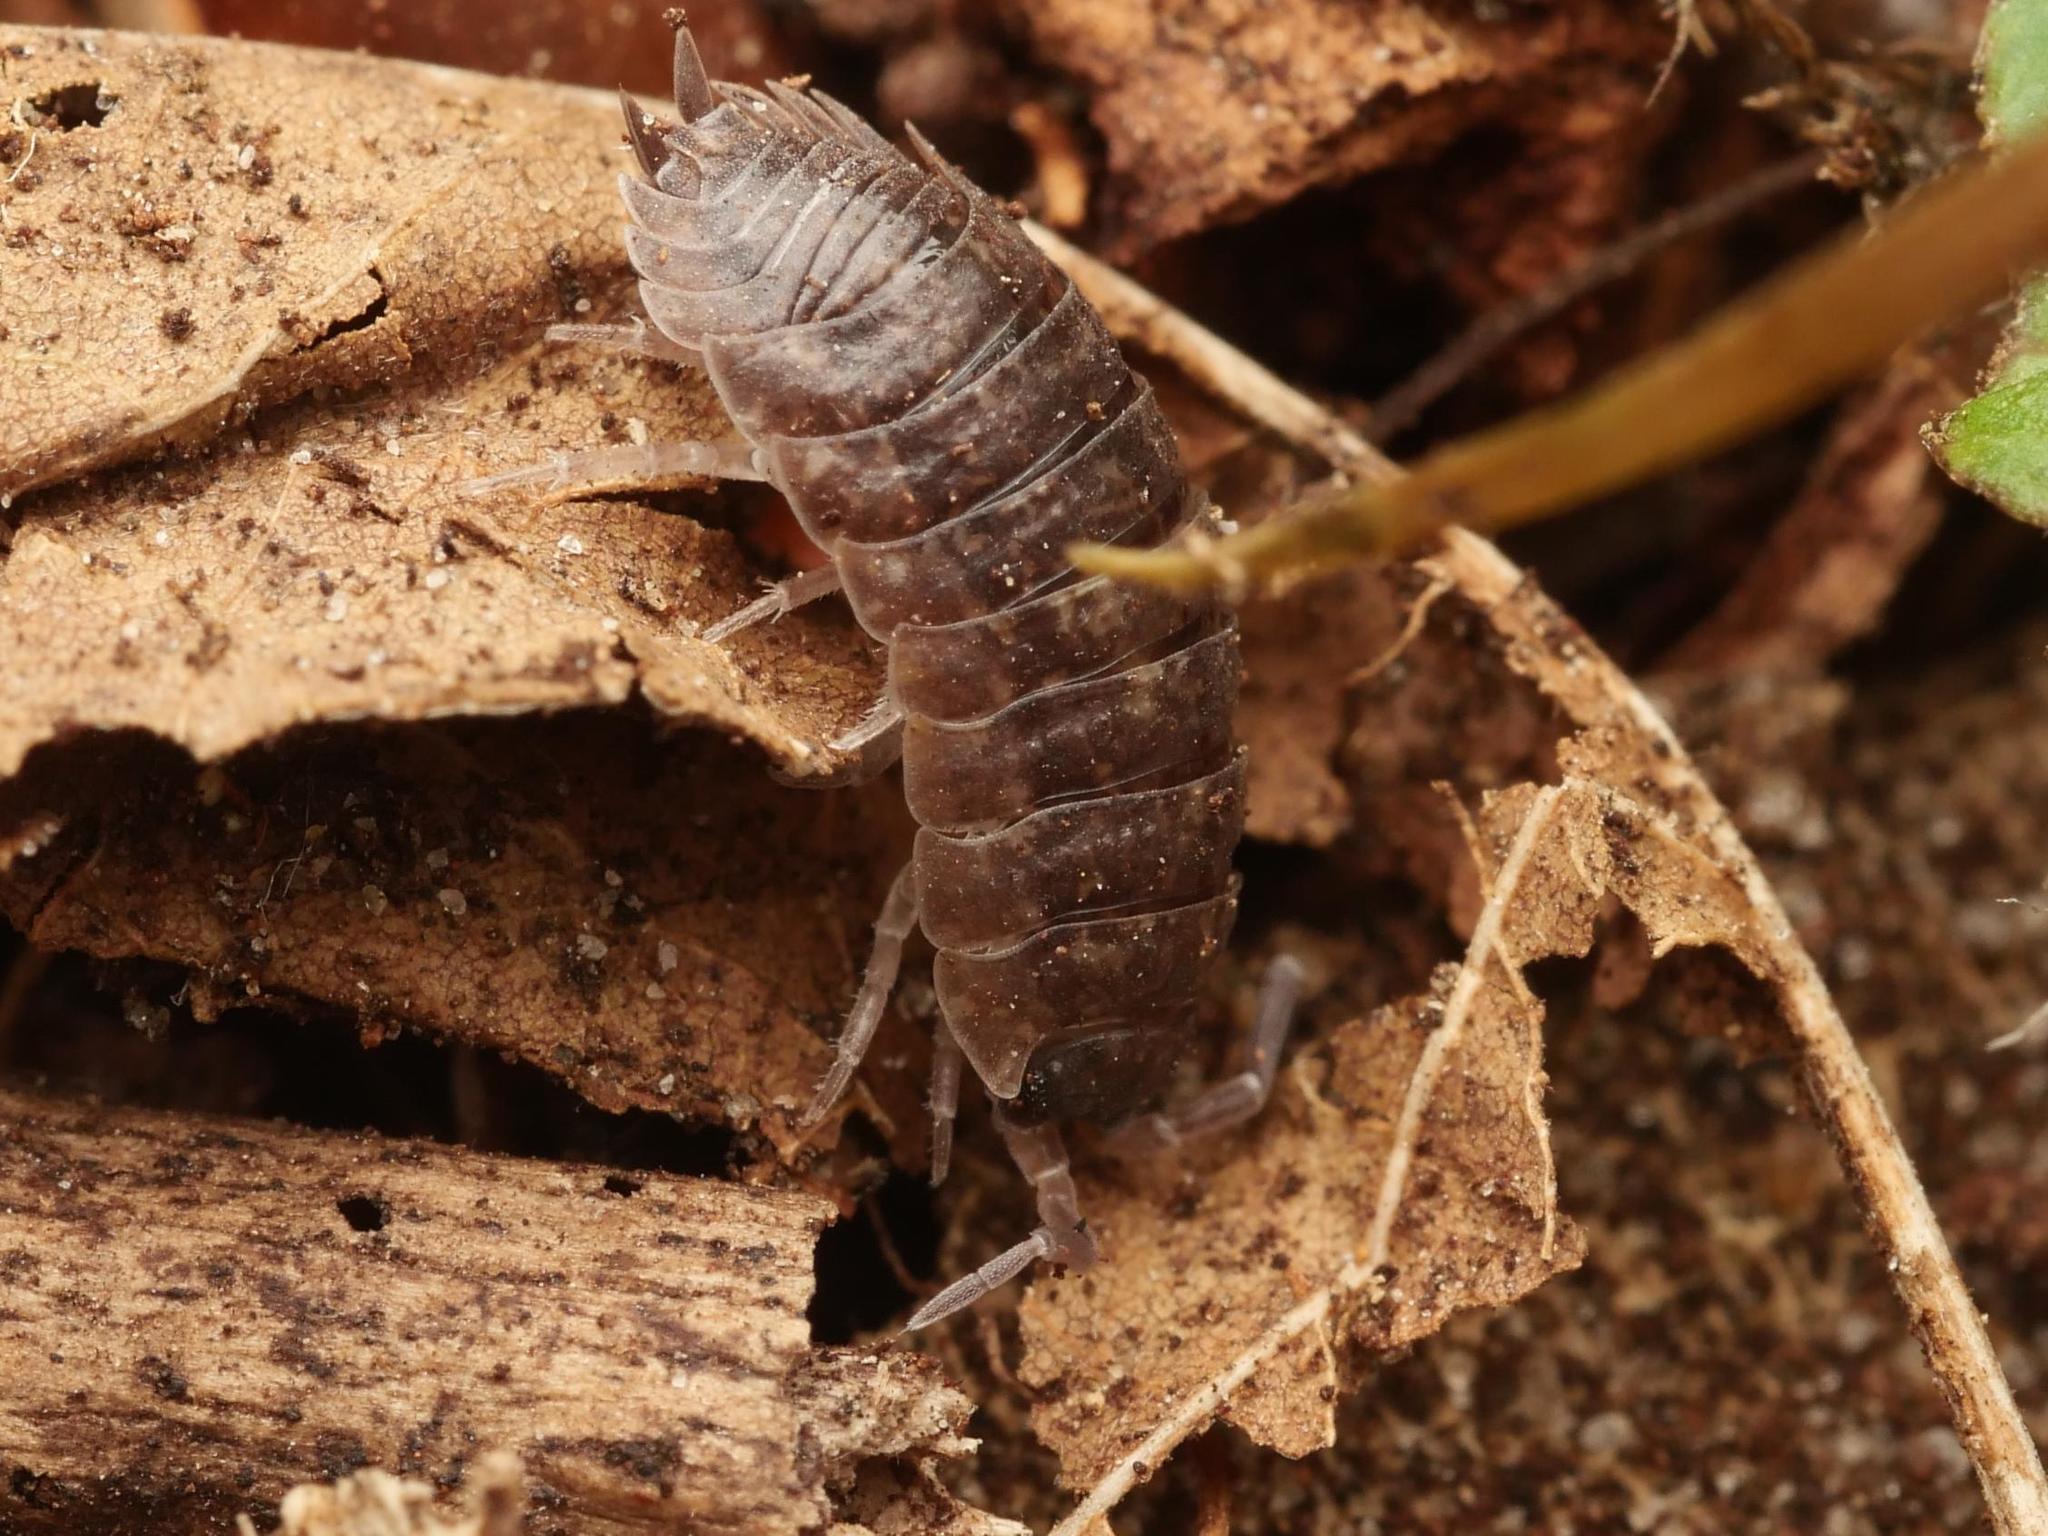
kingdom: Animalia
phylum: Arthropoda
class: Malacostraca
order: Isopoda
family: Porcellionidae
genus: Porcellio
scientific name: Porcellio scaber
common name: Common rough woodlouse
